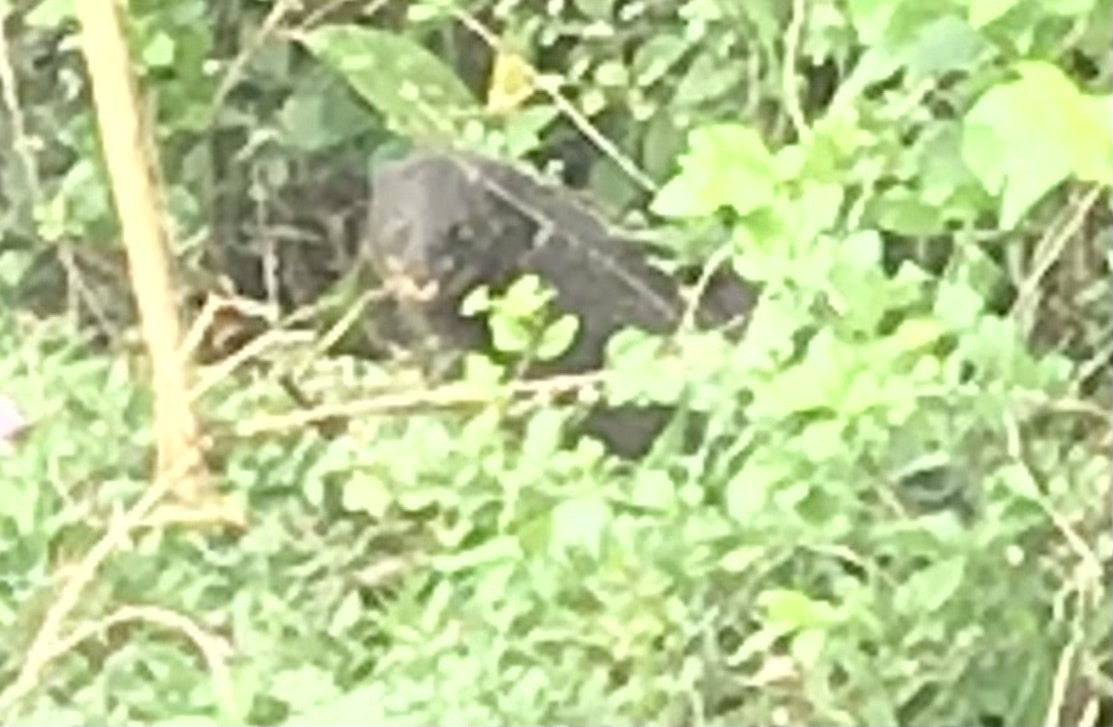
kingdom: Animalia
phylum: Chordata
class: Mammalia
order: Carnivora
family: Herpestidae
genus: Herpestes
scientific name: Herpestes fuscus
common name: Indian brown mongoose
